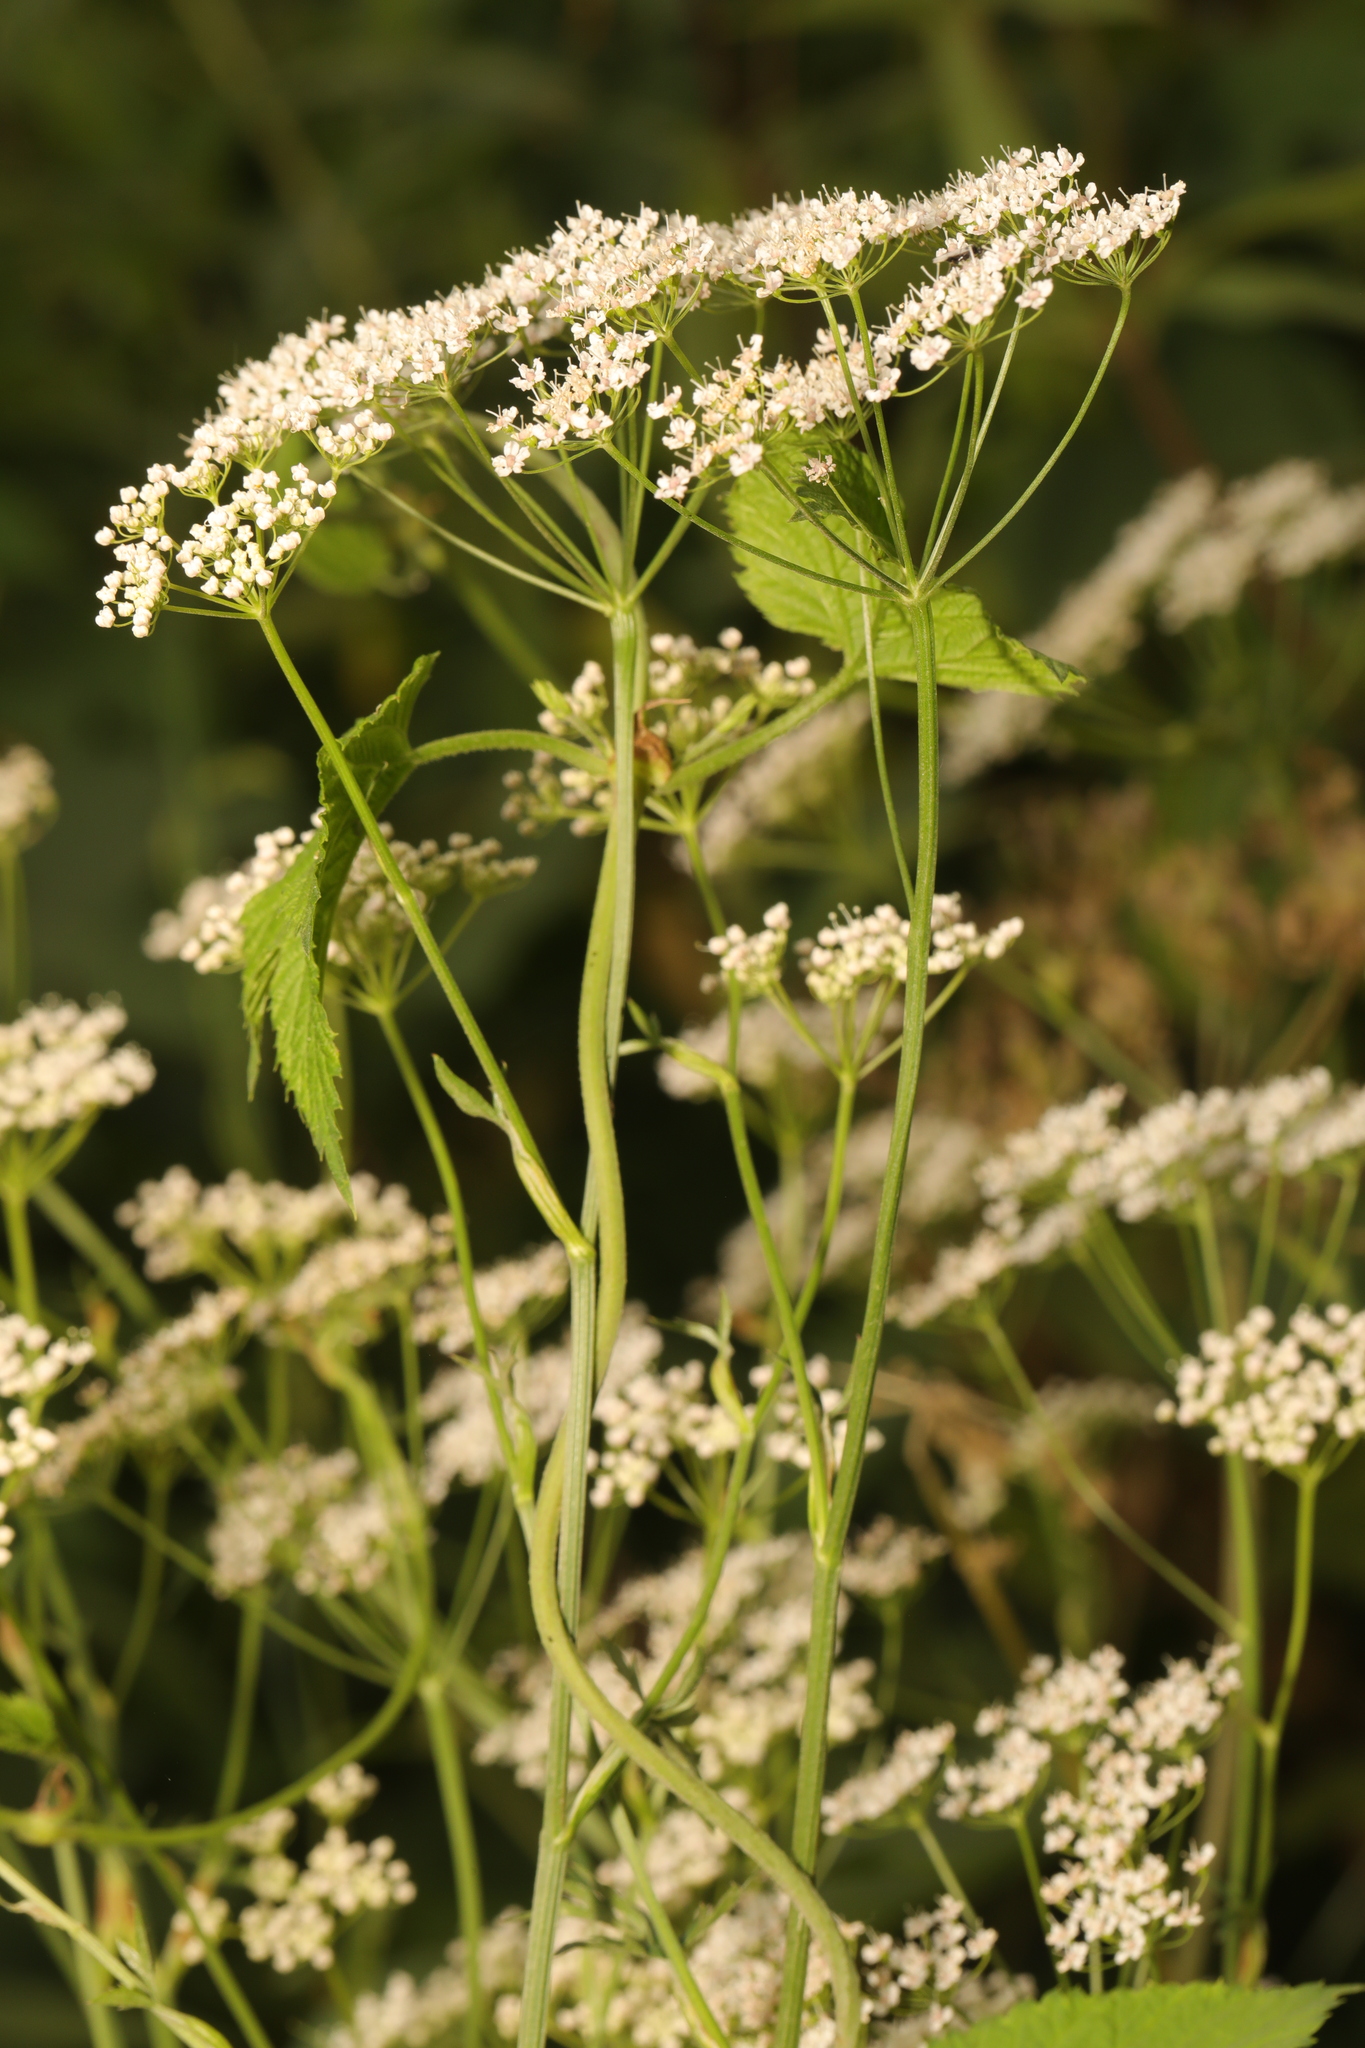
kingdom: Plantae
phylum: Tracheophyta
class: Magnoliopsida
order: Apiales
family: Apiaceae
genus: Pimpinella
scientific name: Pimpinella major
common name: Greater burnet-saxifrage
